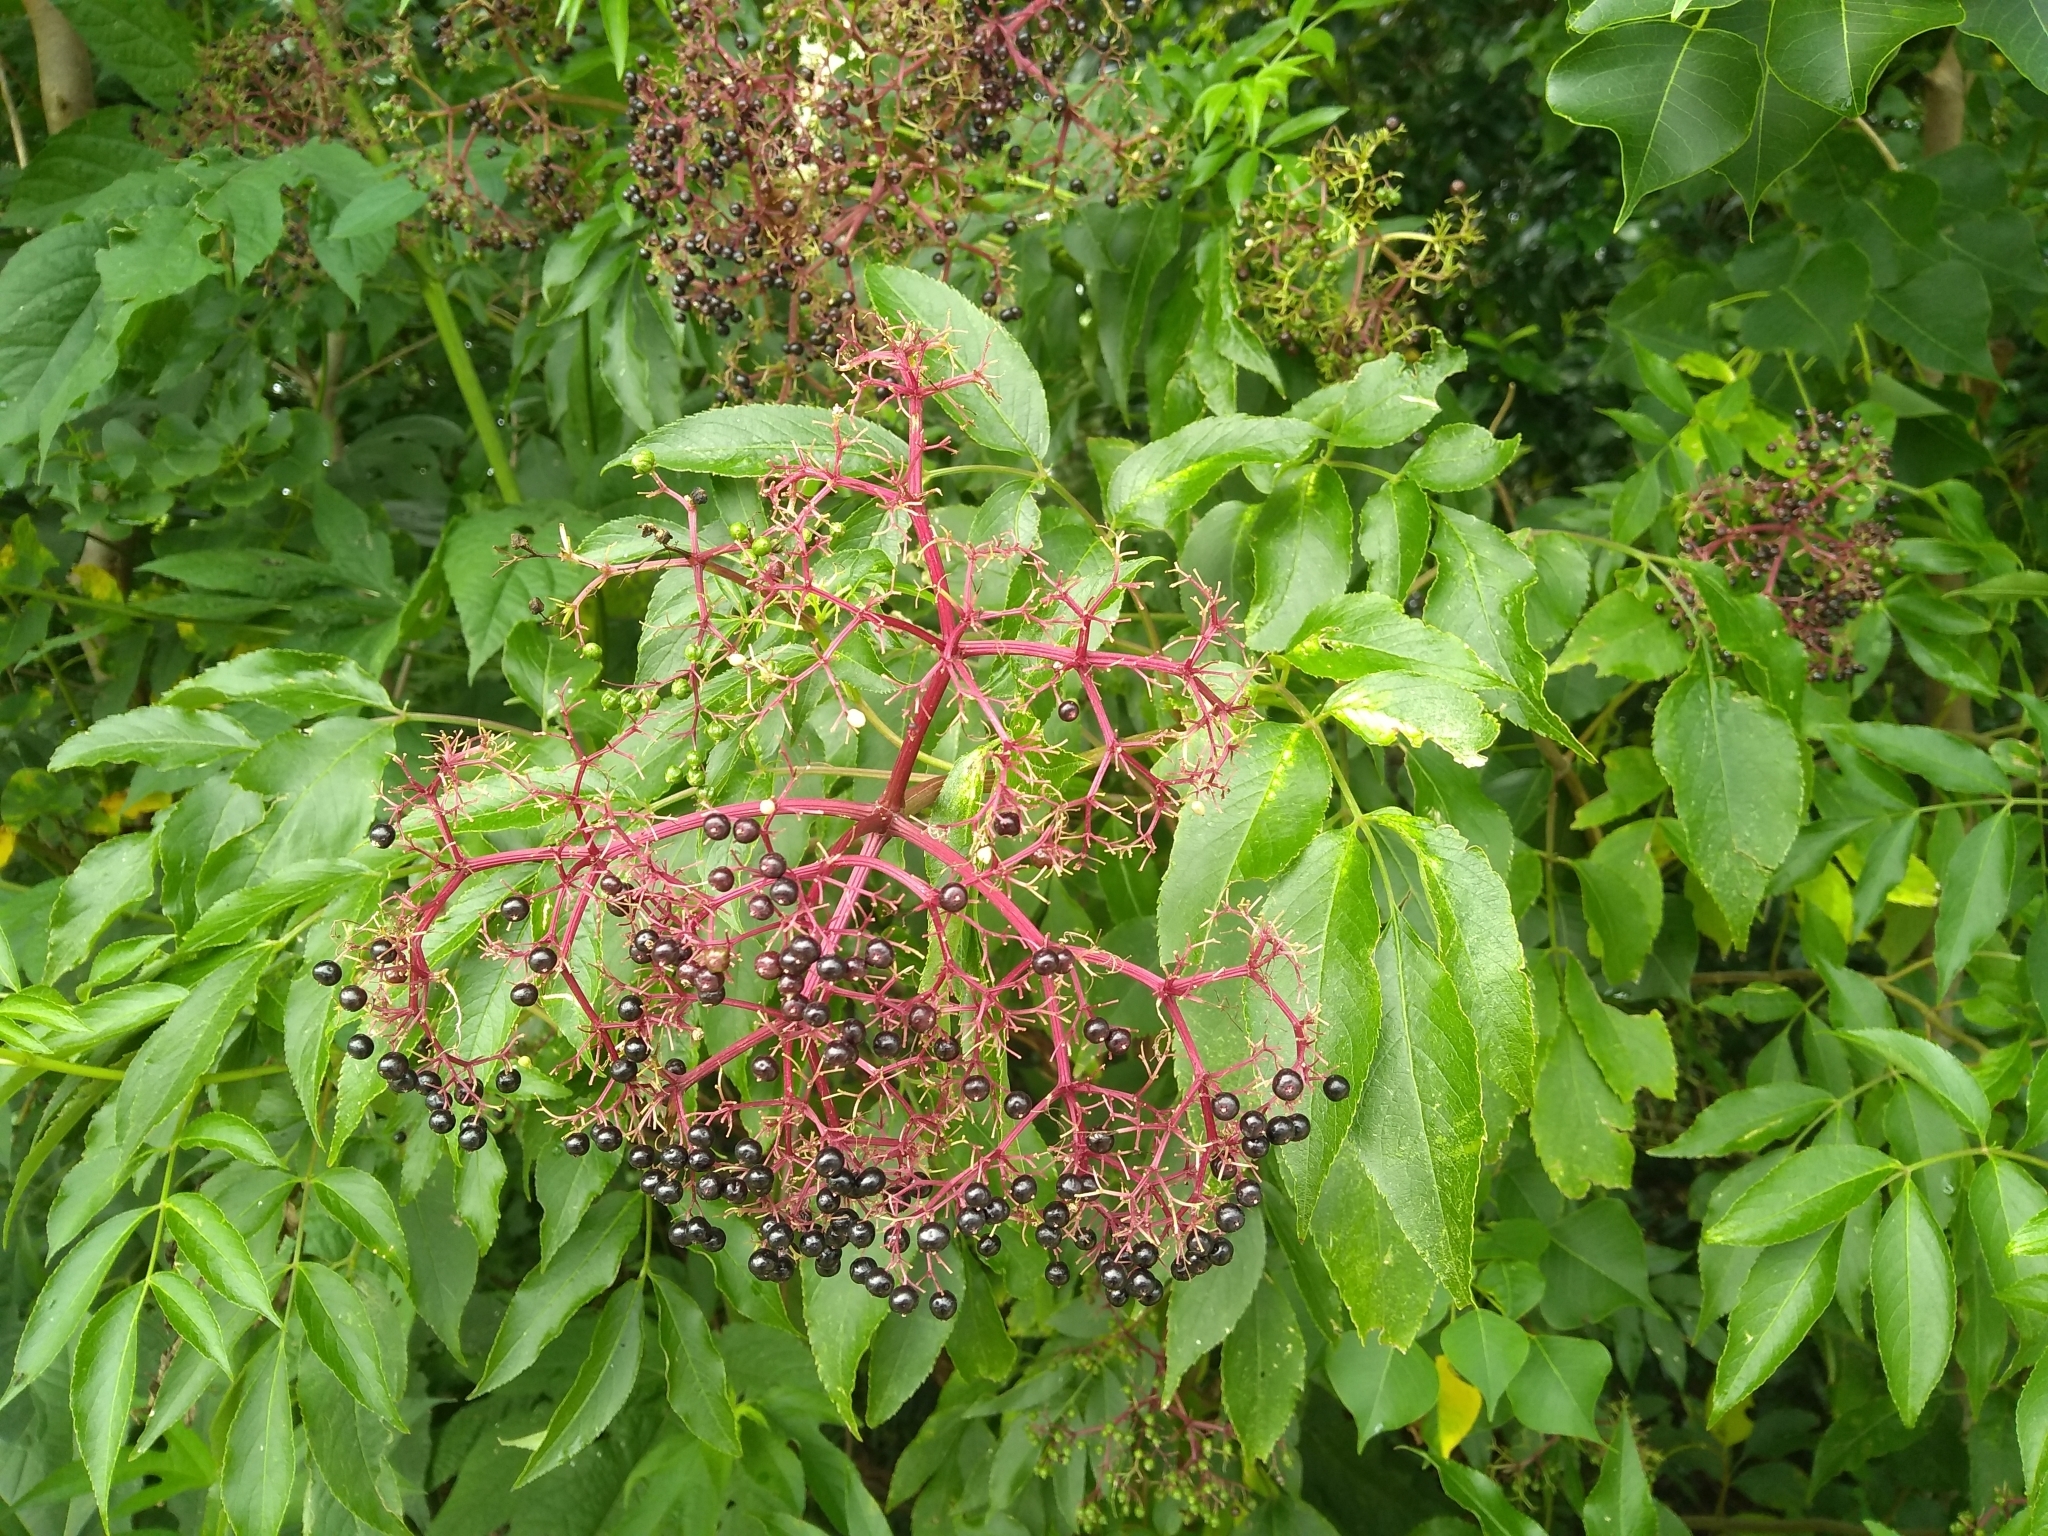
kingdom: Plantae
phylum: Tracheophyta
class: Magnoliopsida
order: Dipsacales
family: Viburnaceae
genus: Sambucus
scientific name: Sambucus canadensis
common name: American elder
